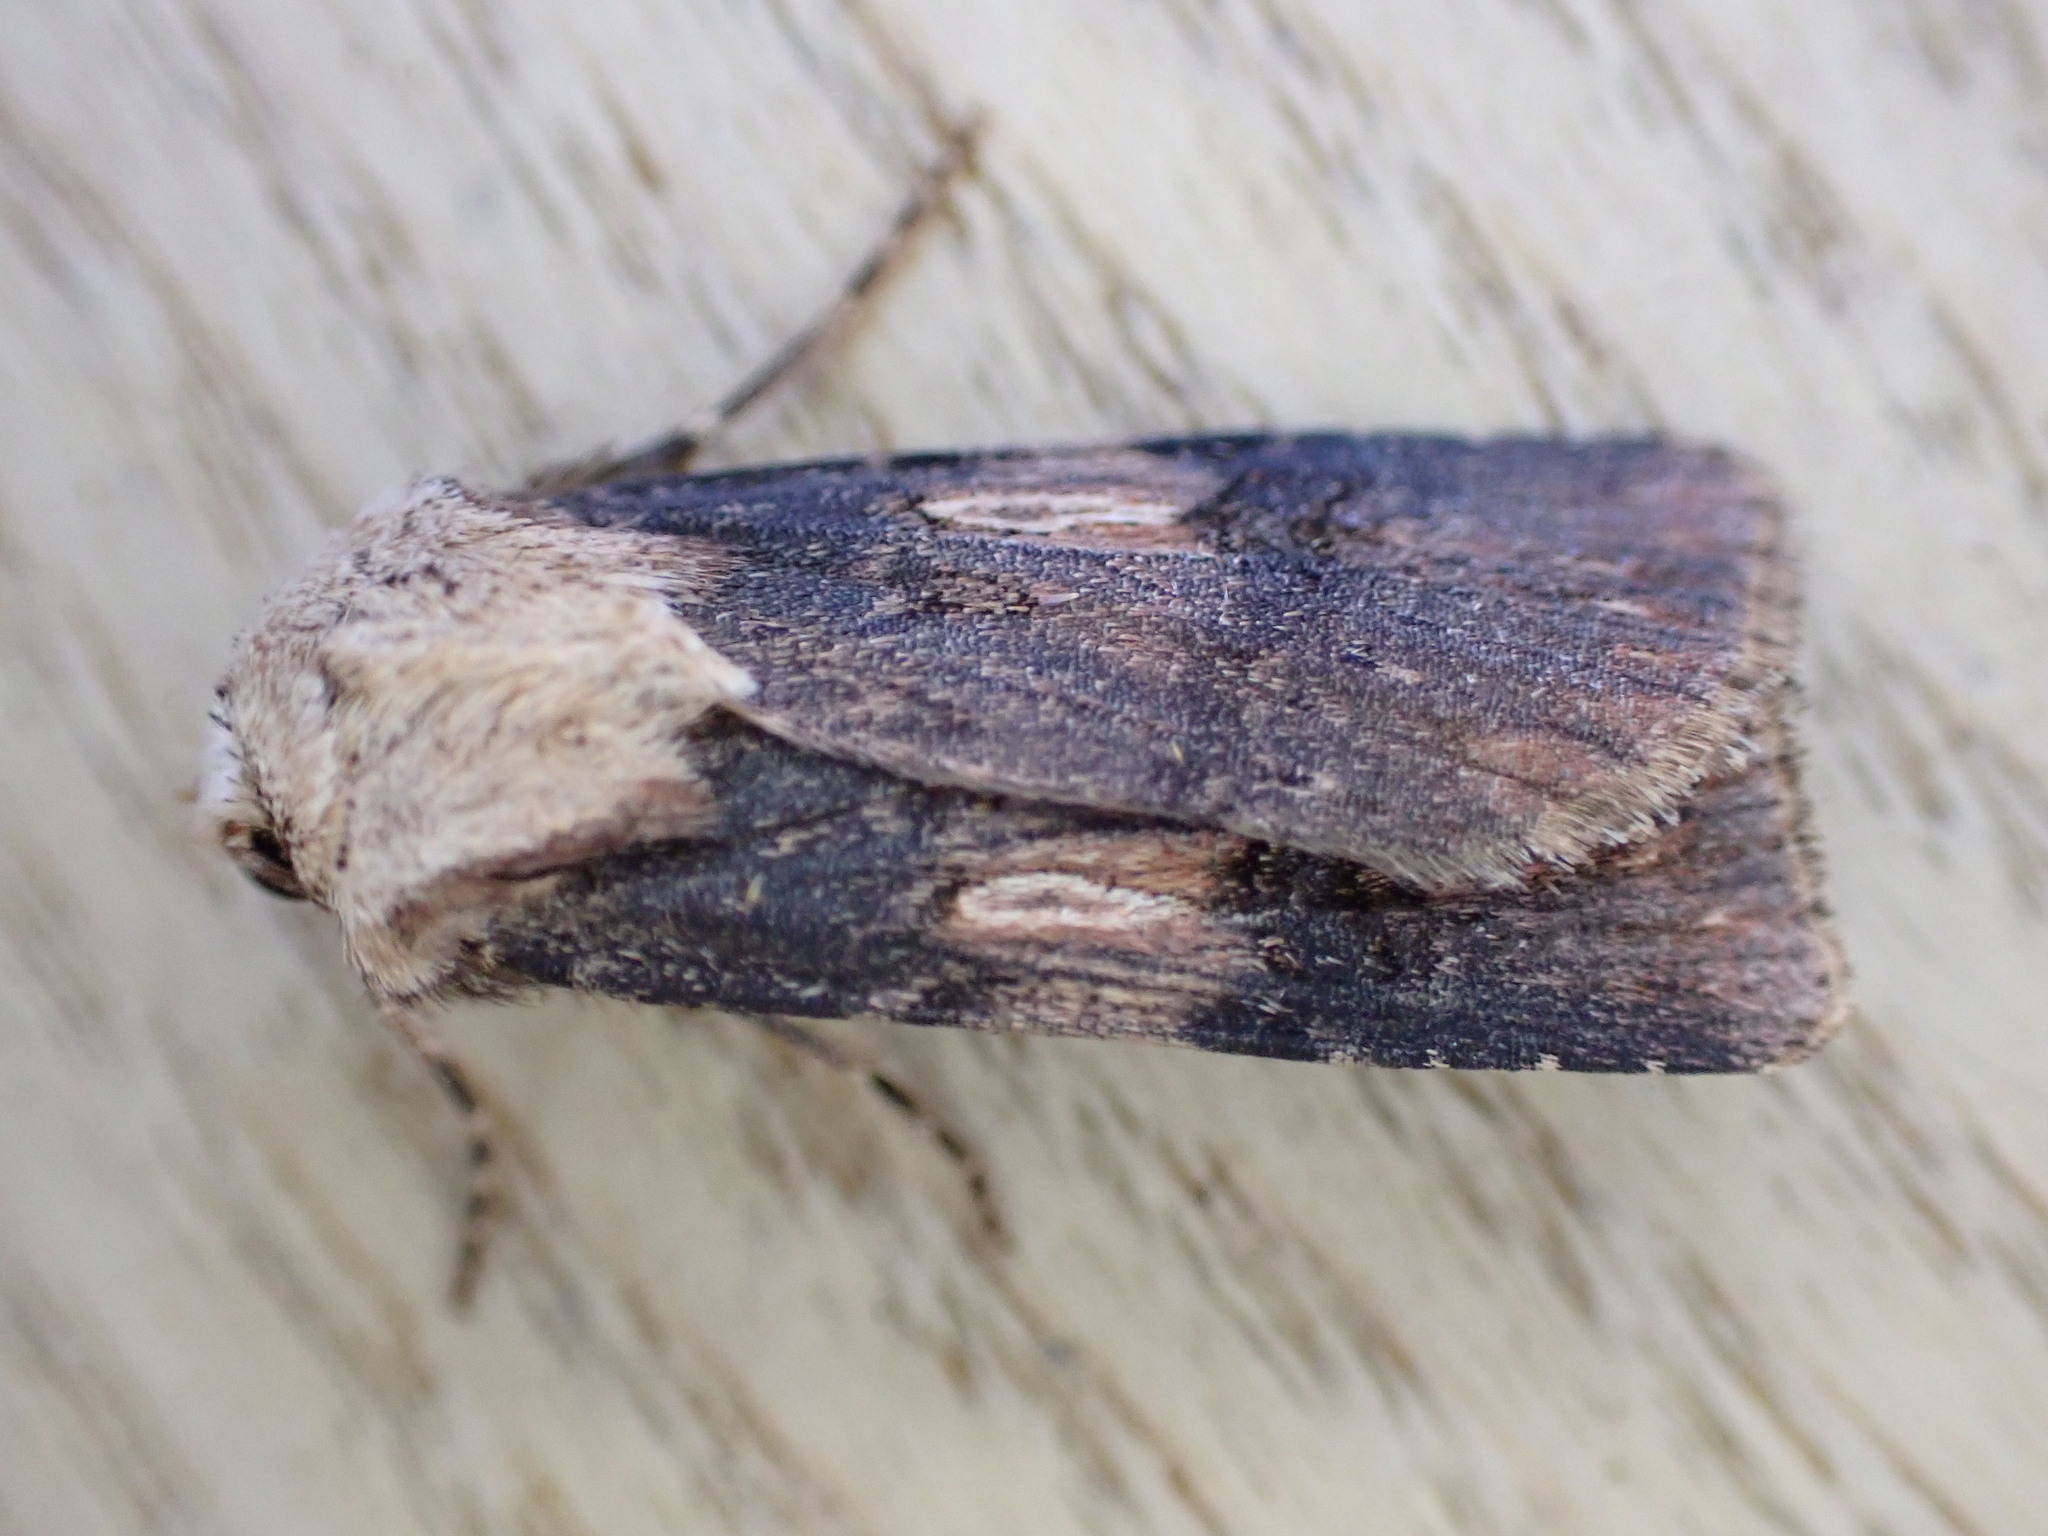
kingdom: Animalia
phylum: Arthropoda
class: Insecta
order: Lepidoptera
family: Noctuidae
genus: Agrotis
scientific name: Agrotis puta
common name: Shuttle-shaped dart
